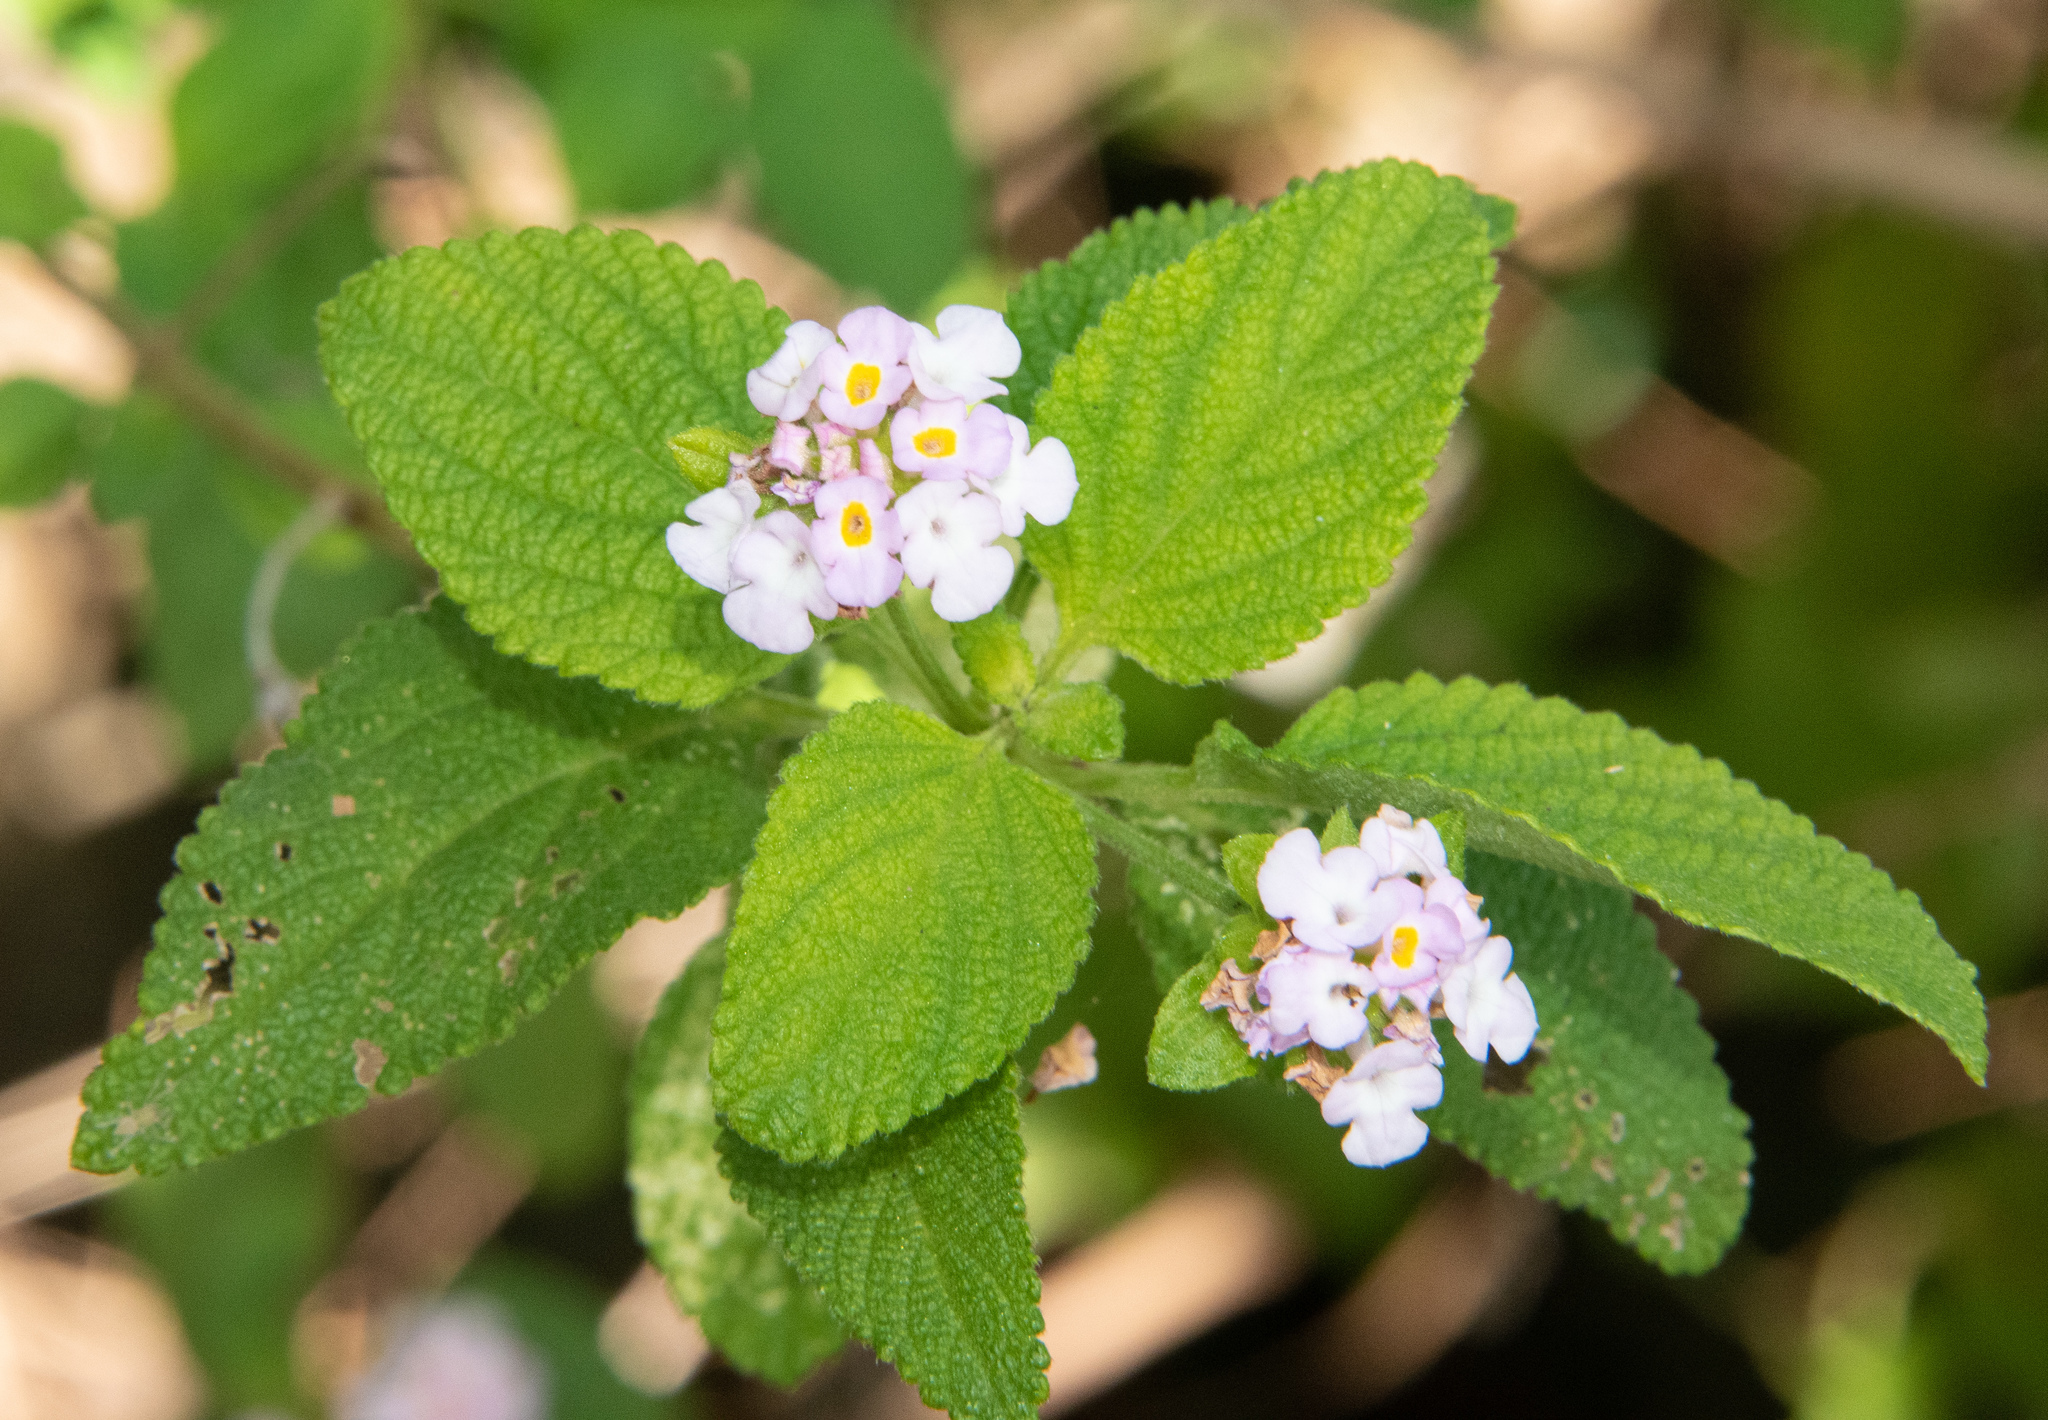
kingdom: Plantae
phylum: Tracheophyta
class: Magnoliopsida
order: Lamiales
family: Verbenaceae
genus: Lantana
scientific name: Lantana camara
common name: Lantana
